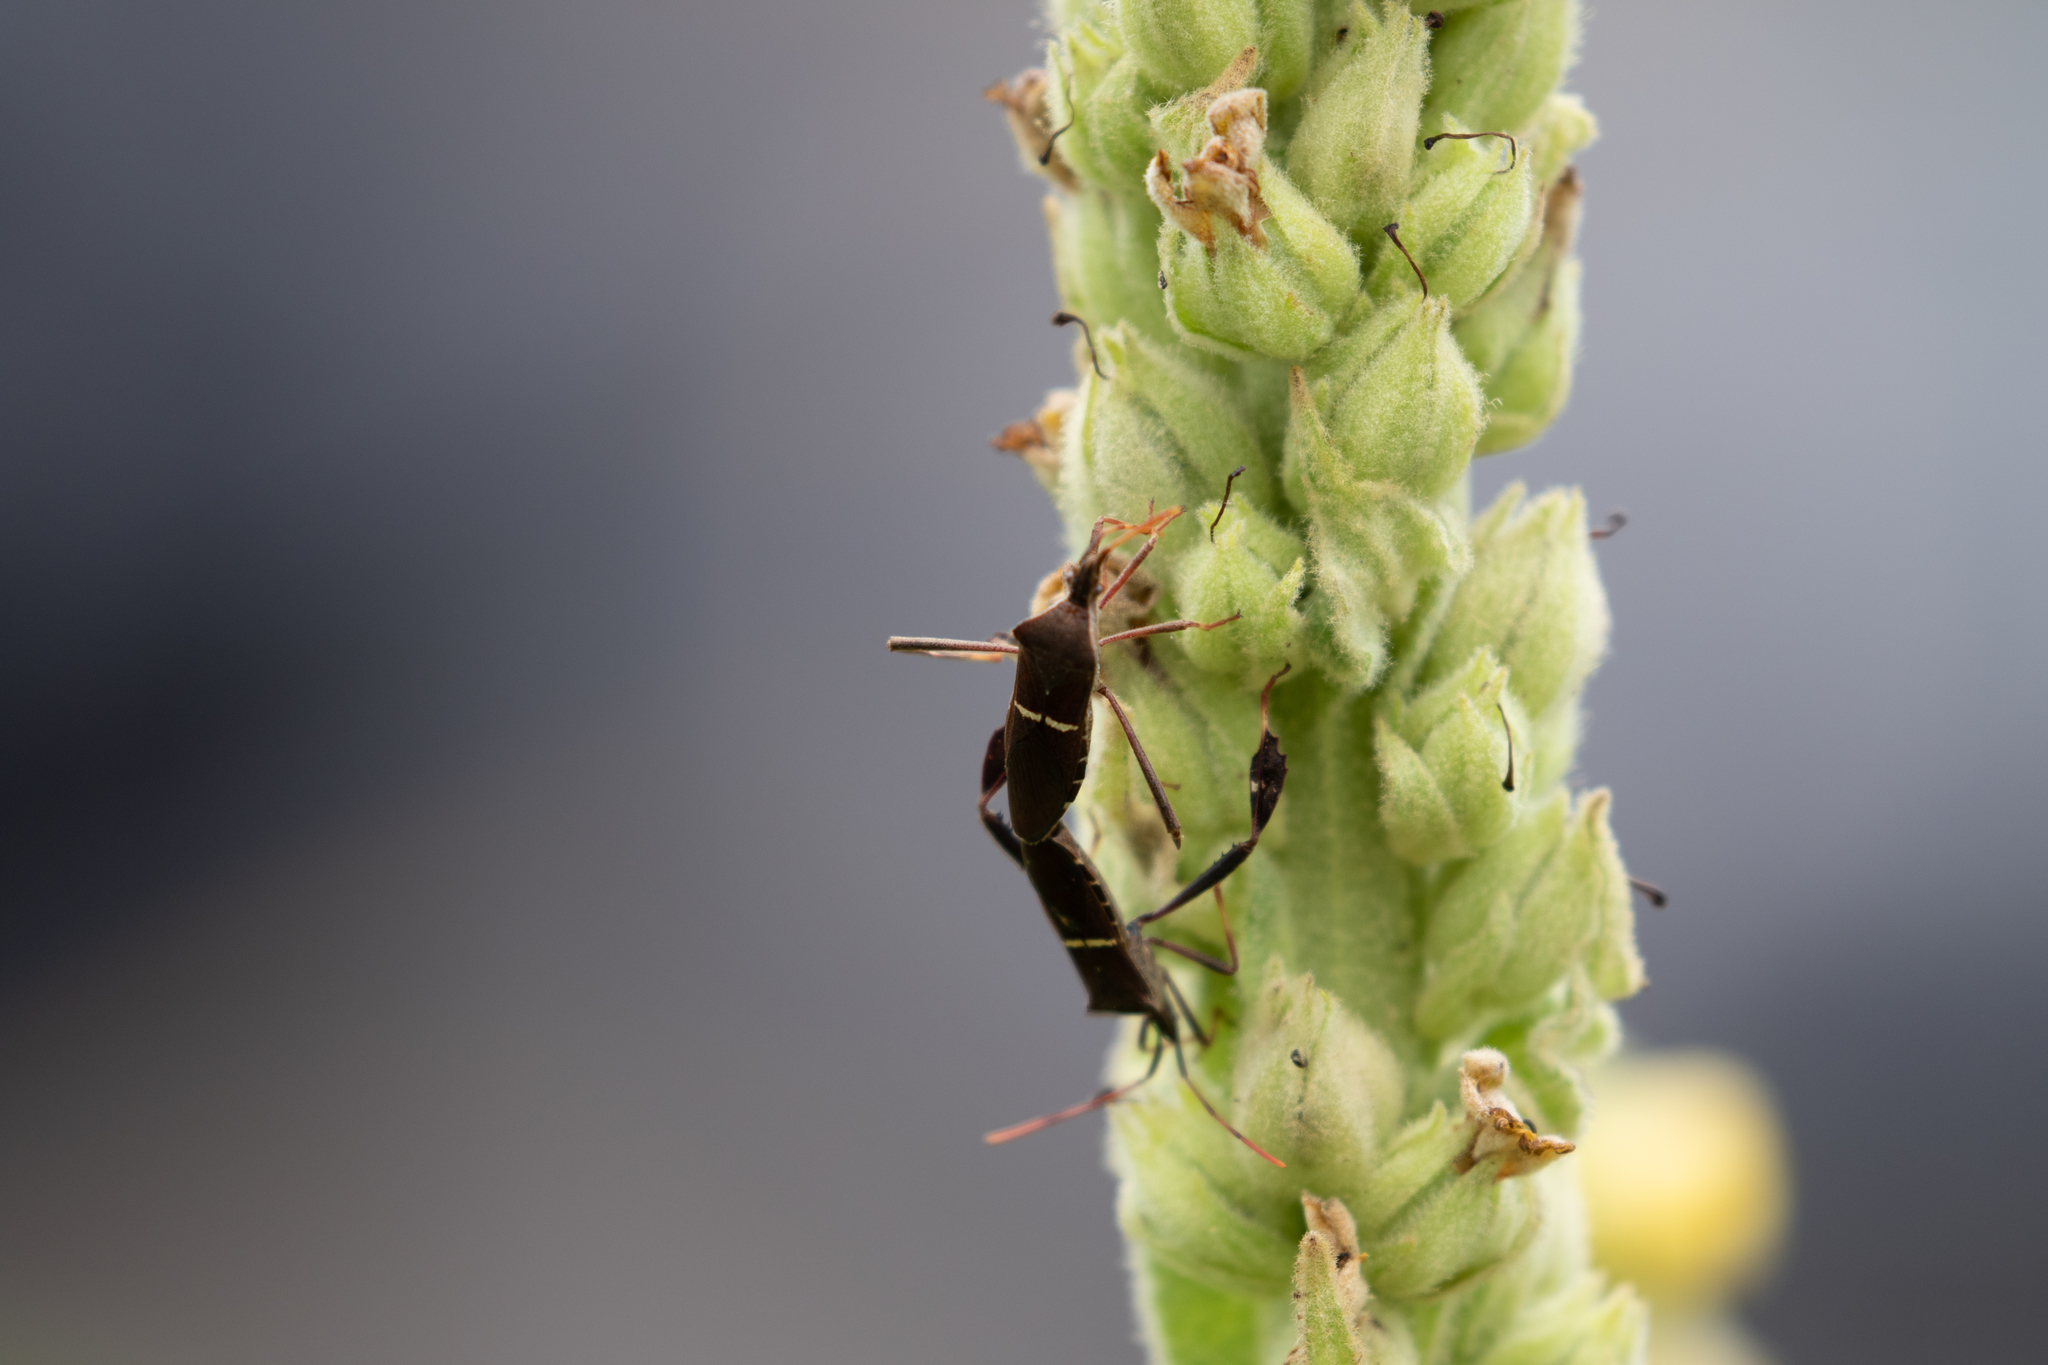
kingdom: Animalia
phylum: Arthropoda
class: Insecta
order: Hemiptera
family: Coreidae
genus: Leptoglossus
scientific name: Leptoglossus phyllopus
